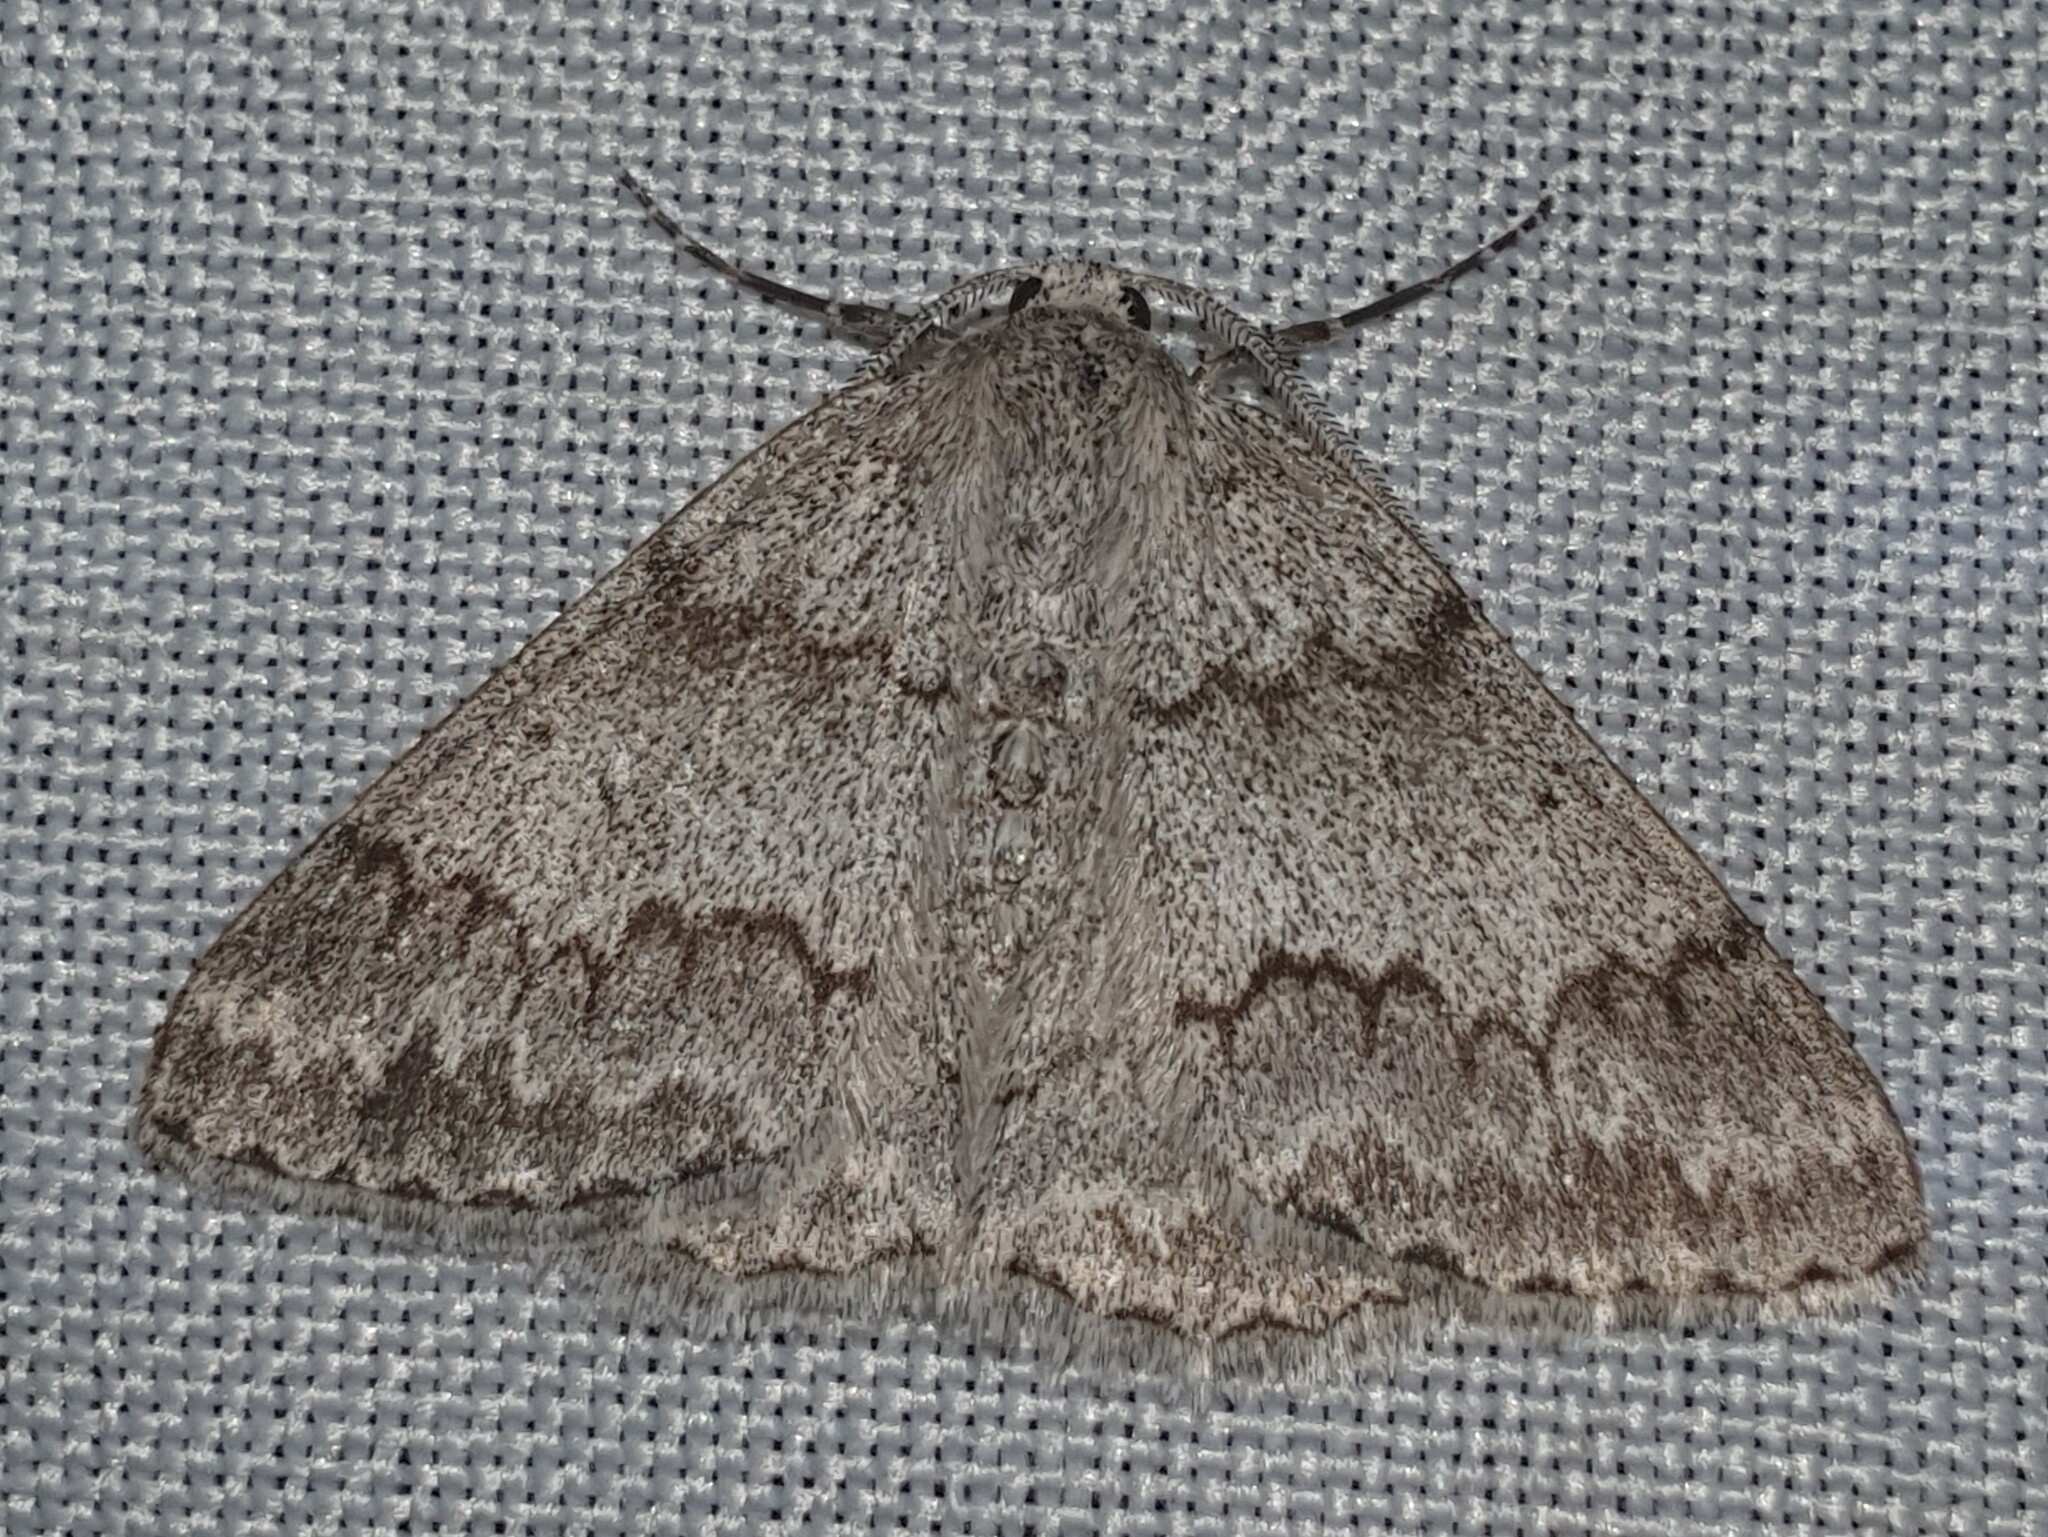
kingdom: Animalia
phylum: Arthropoda
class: Insecta
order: Lepidoptera
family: Geometridae
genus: Pseudoterpna
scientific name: Pseudoterpna coronillaria
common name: Jersey emerald
